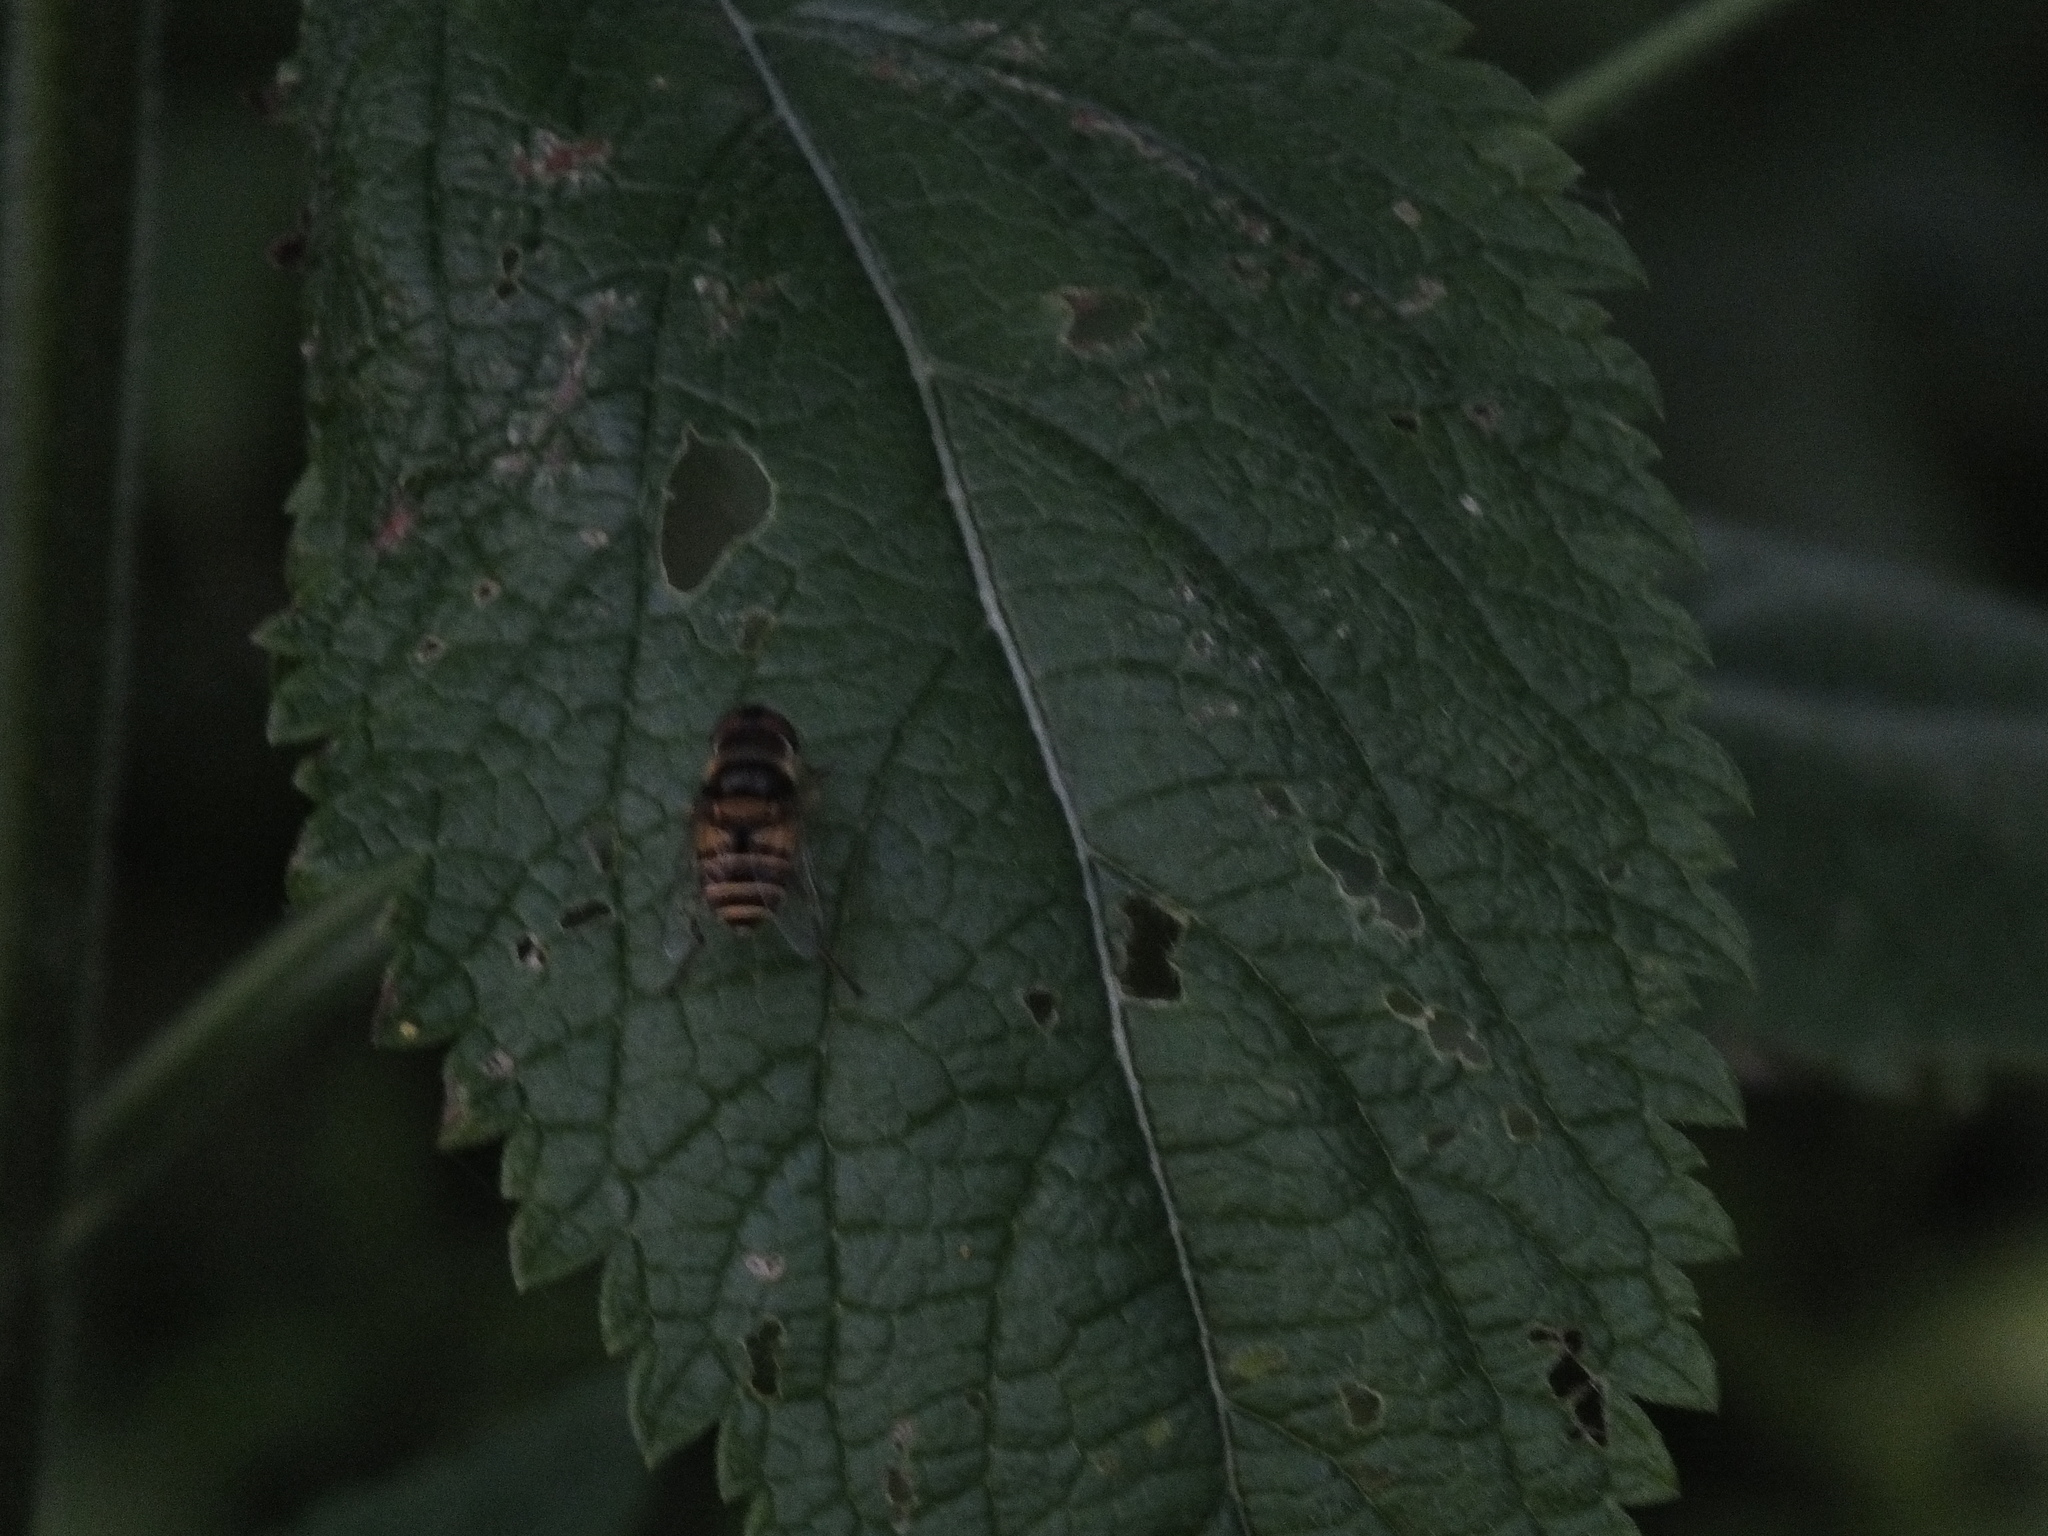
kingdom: Animalia
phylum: Arthropoda
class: Insecta
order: Diptera
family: Syrphidae
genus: Eristalis
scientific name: Eristalis transversa
